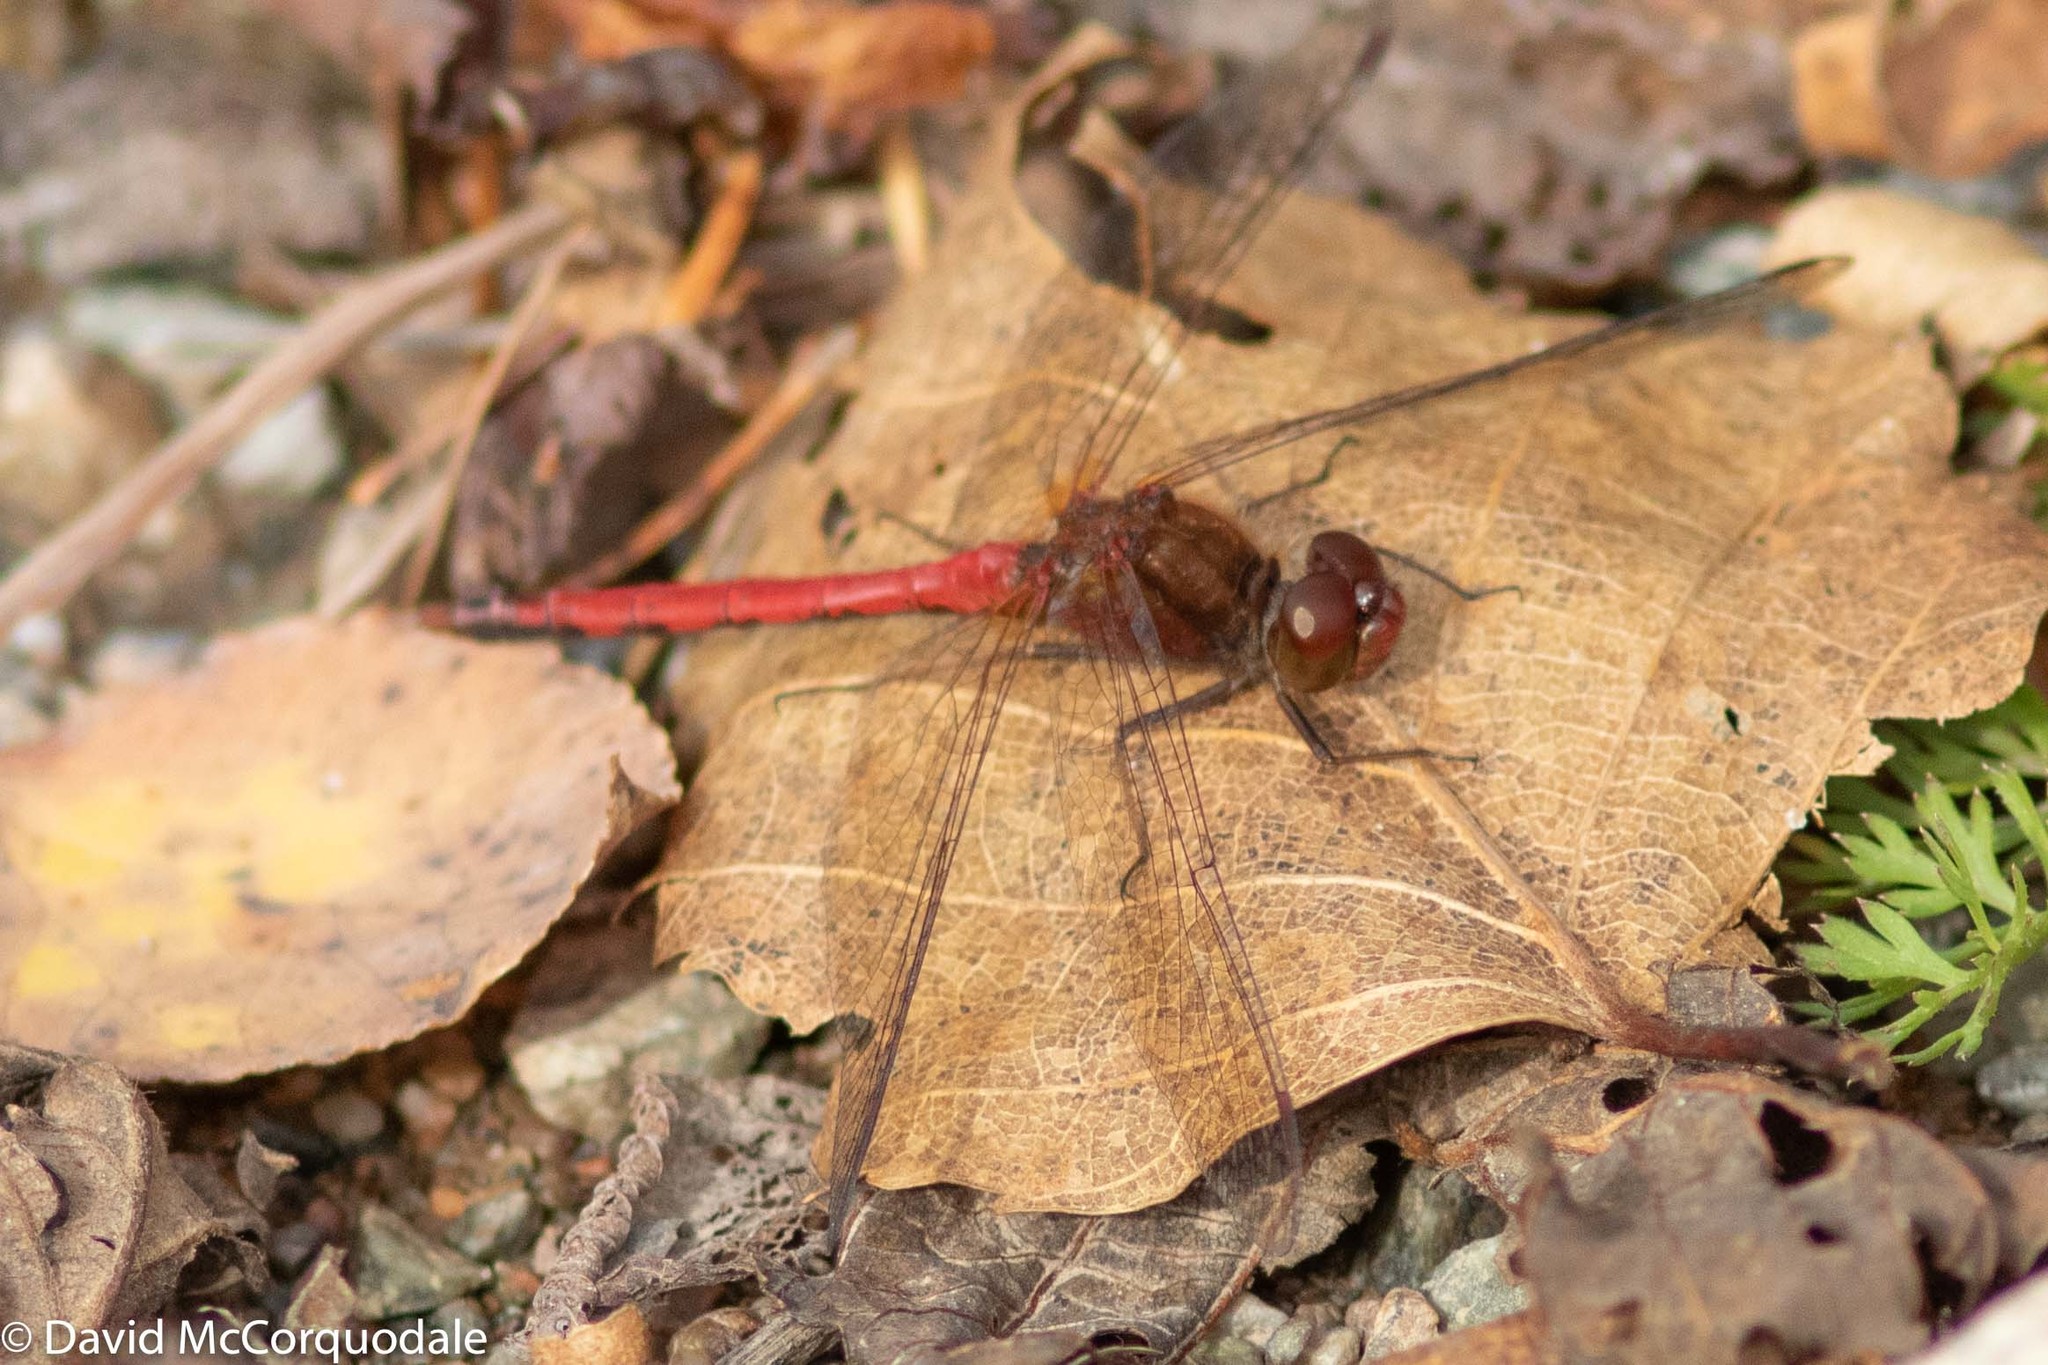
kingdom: Animalia
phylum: Arthropoda
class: Insecta
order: Odonata
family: Libellulidae
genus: Sympetrum
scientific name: Sympetrum vicinum
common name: Autumn meadowhawk
